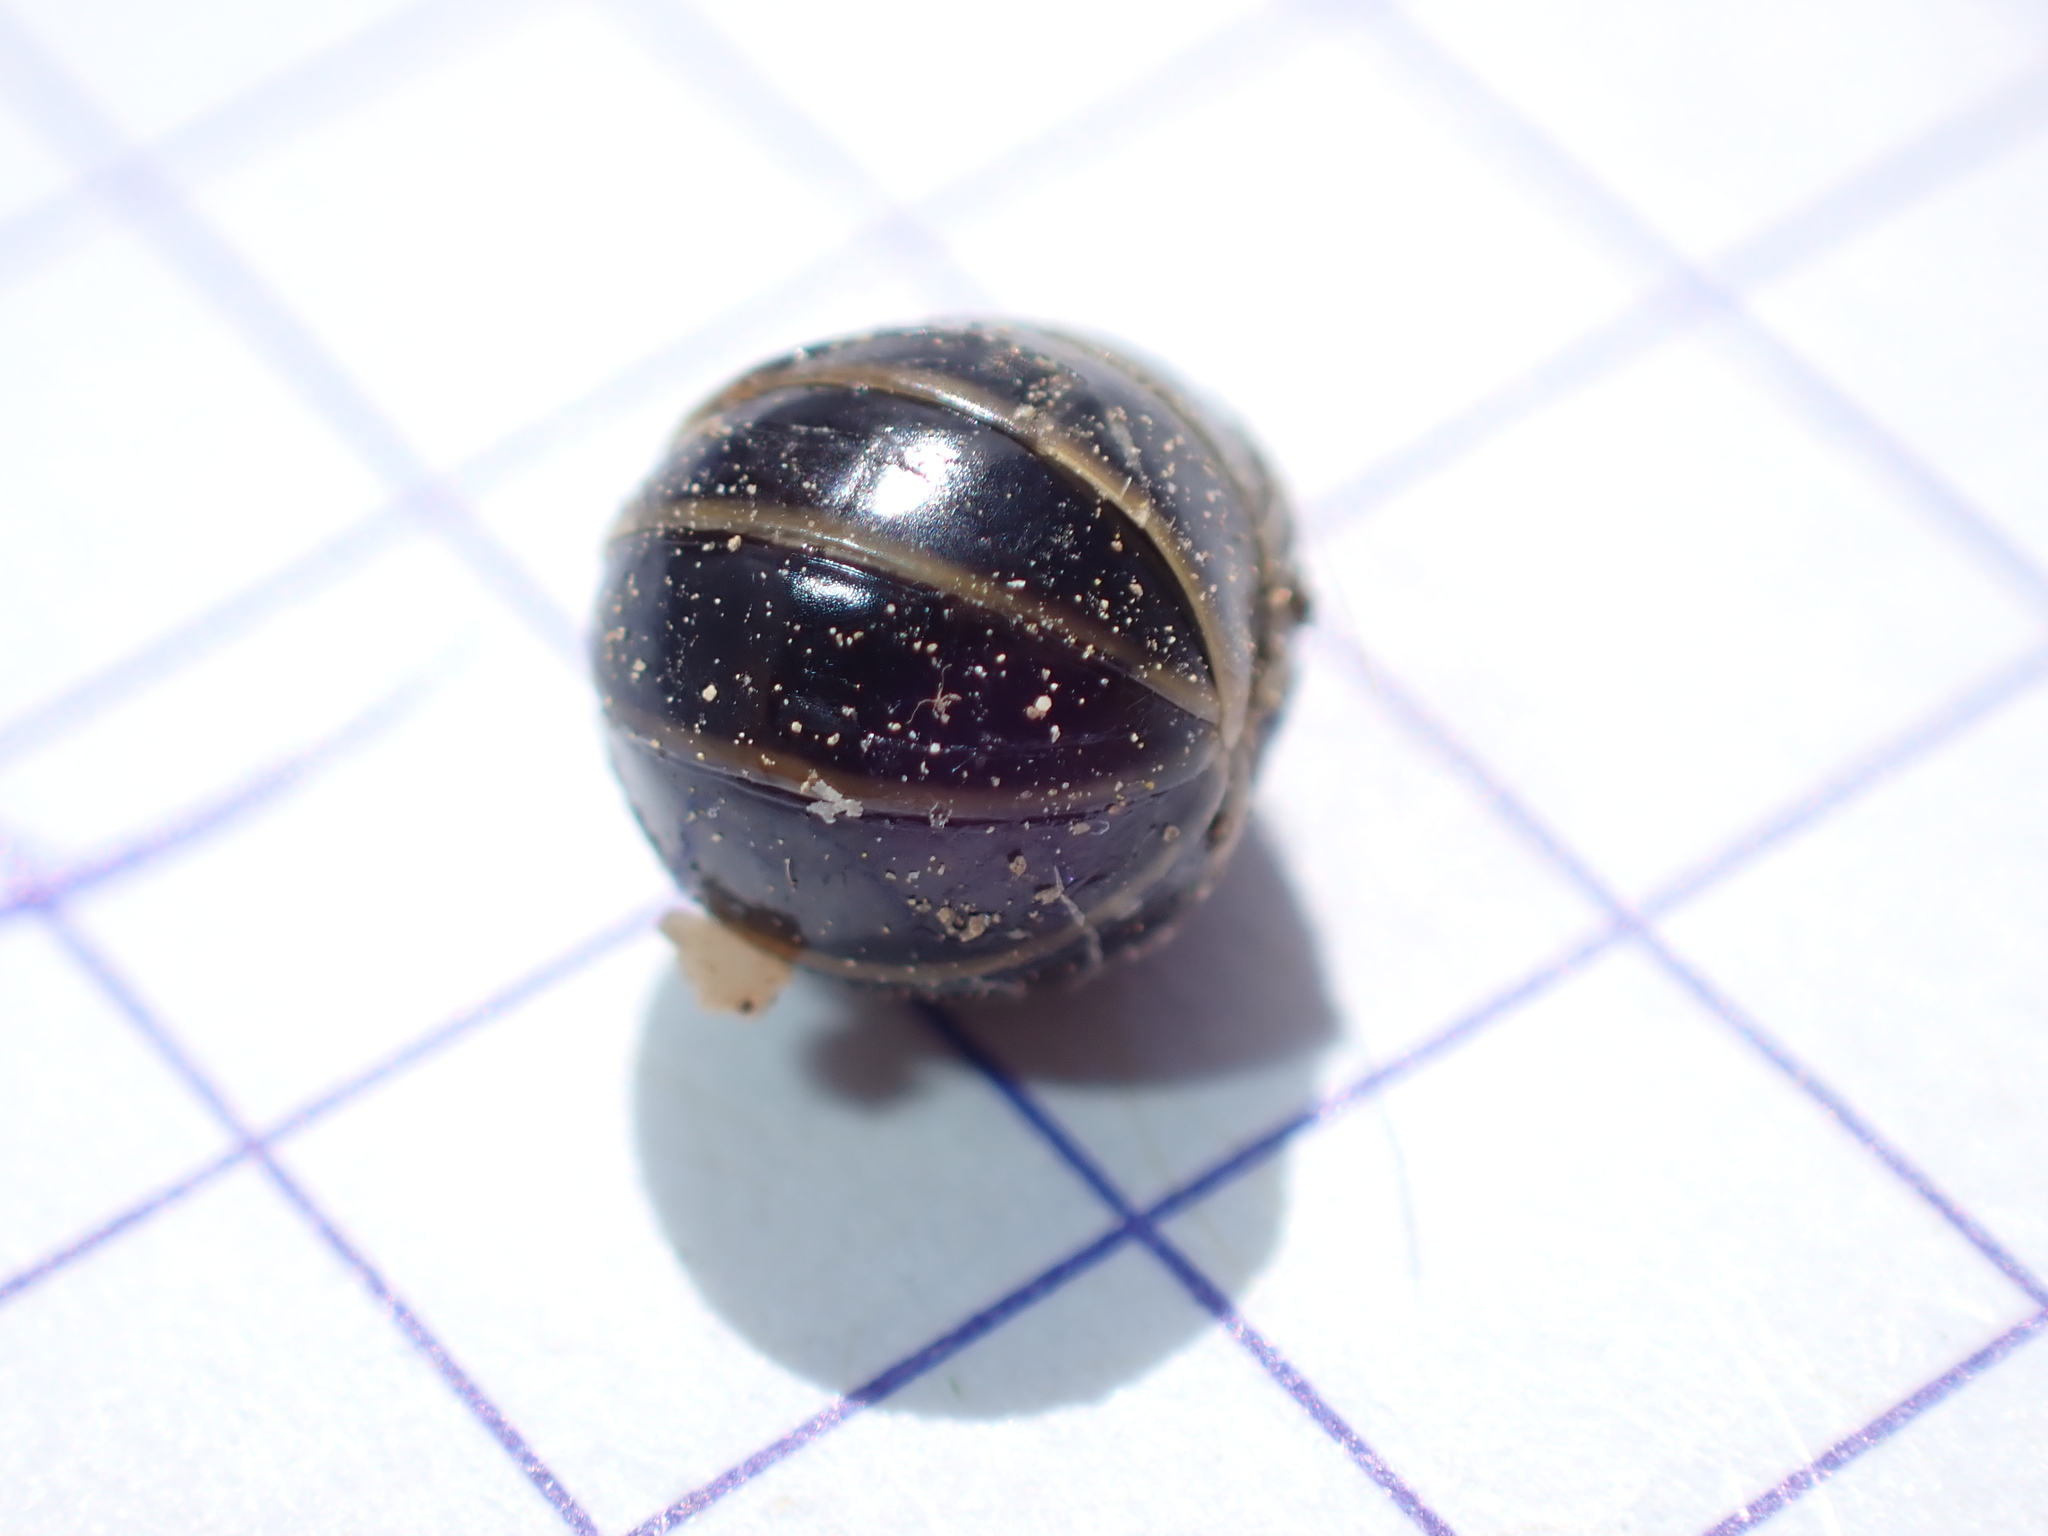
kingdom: Animalia
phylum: Arthropoda
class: Diplopoda
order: Glomerida
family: Glomeridae
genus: Glomeris
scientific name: Glomeris marginata
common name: Bordered pill millipede
